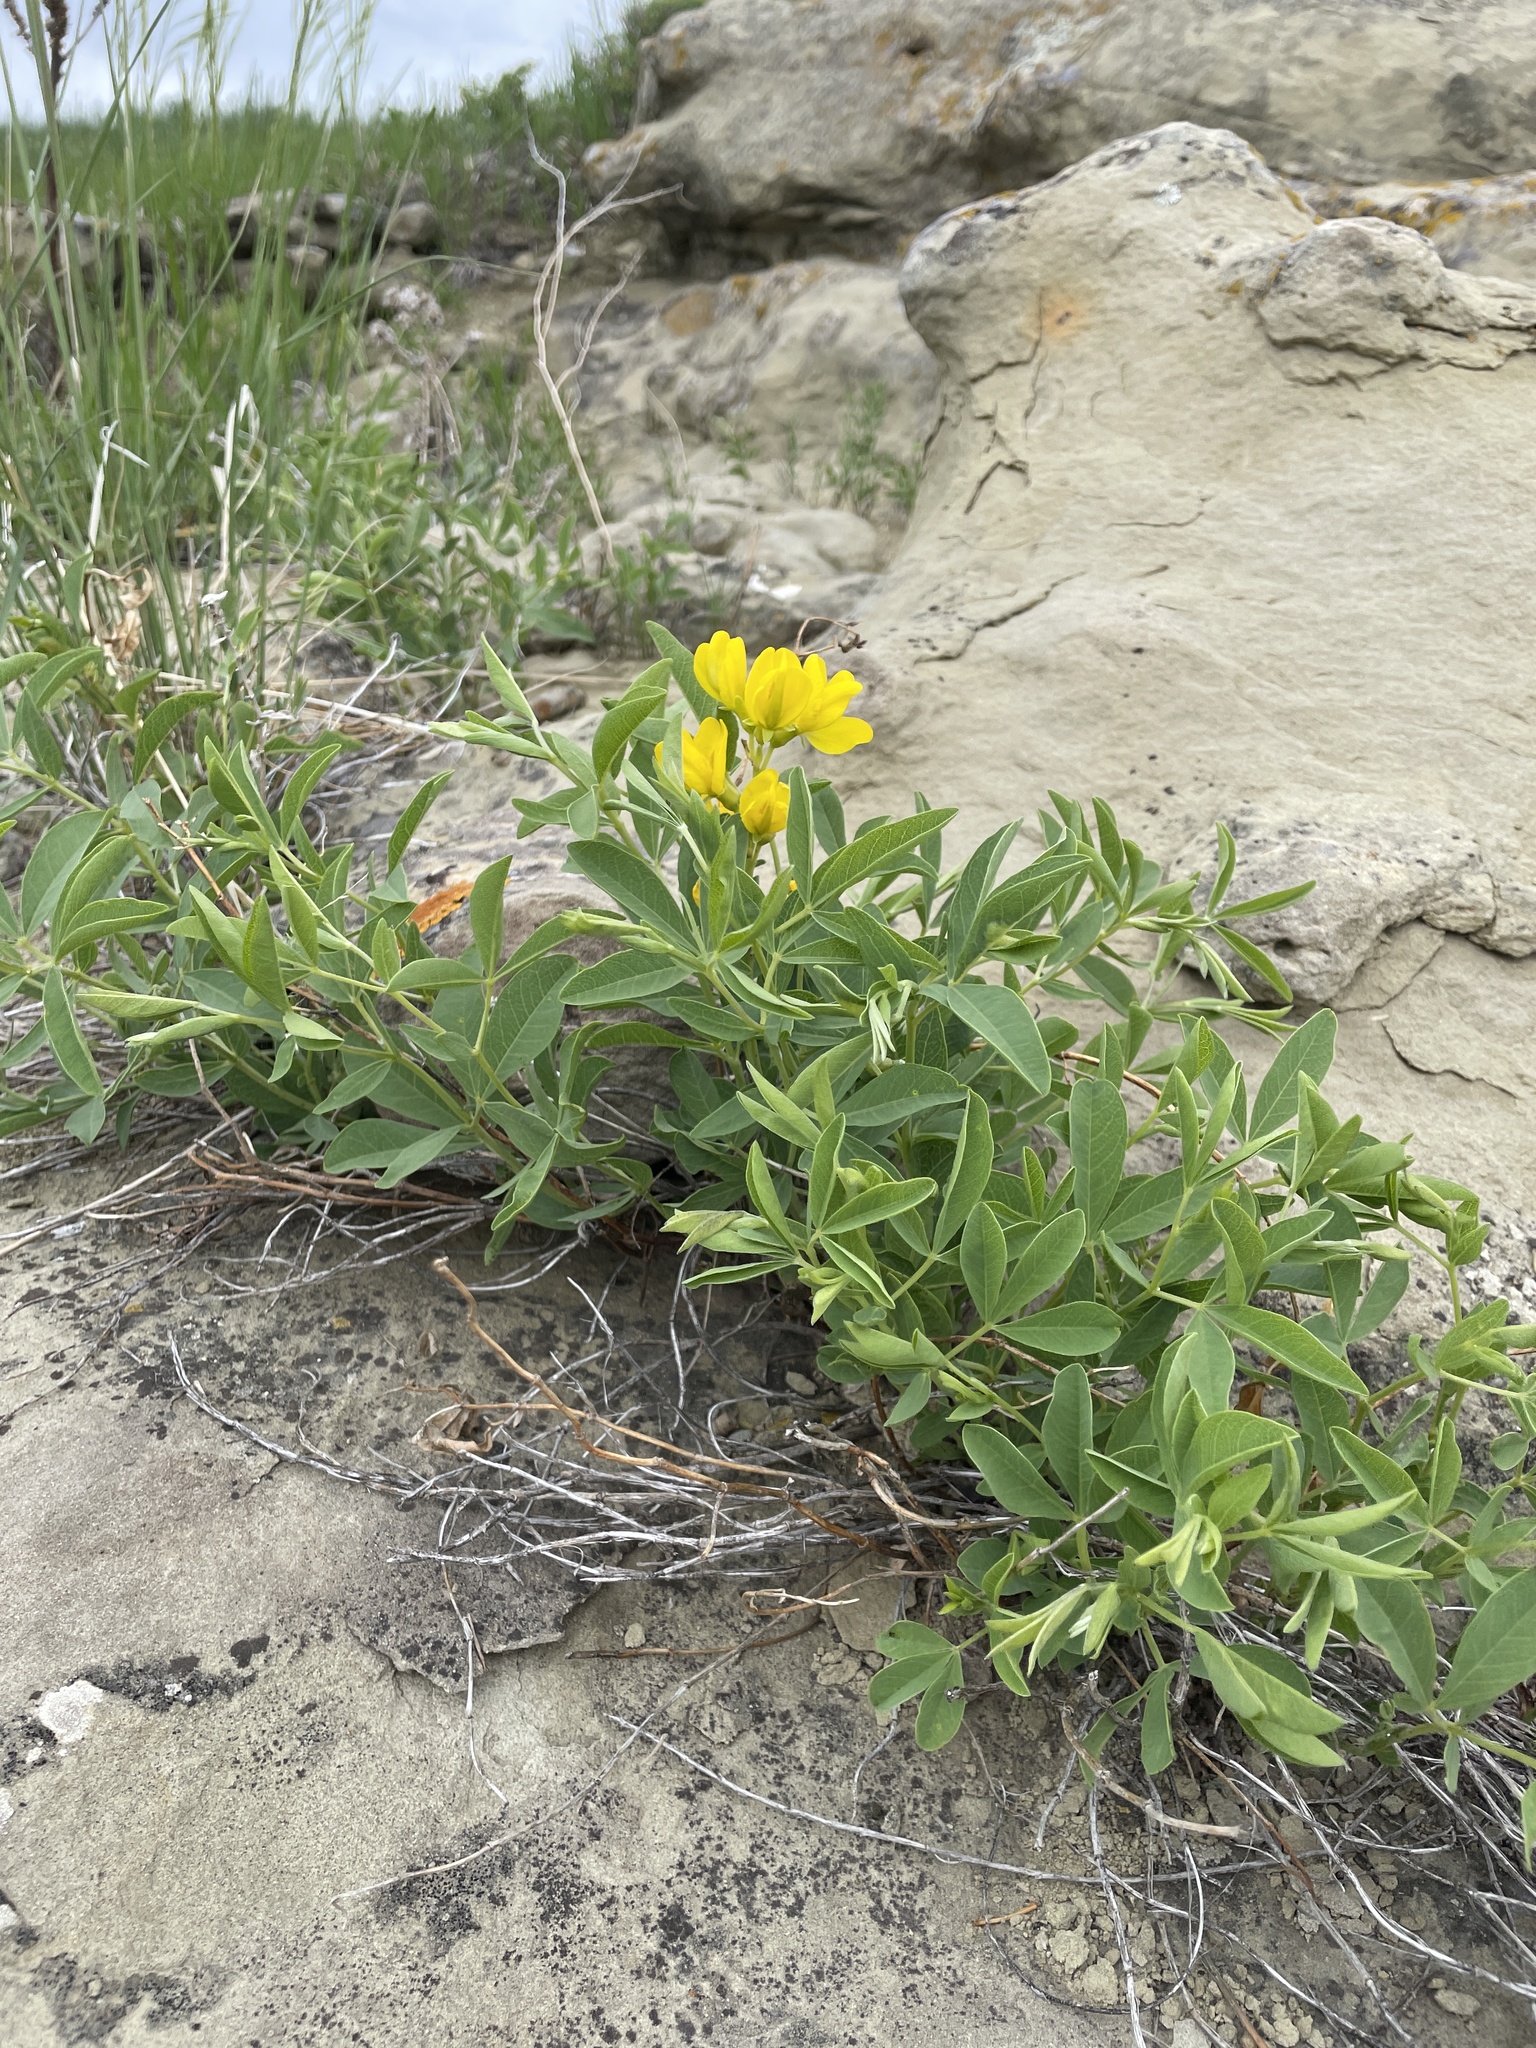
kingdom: Plantae
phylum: Tracheophyta
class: Magnoliopsida
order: Fabales
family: Fabaceae
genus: Thermopsis
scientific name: Thermopsis rhombifolia
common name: Circle-pod-pea
